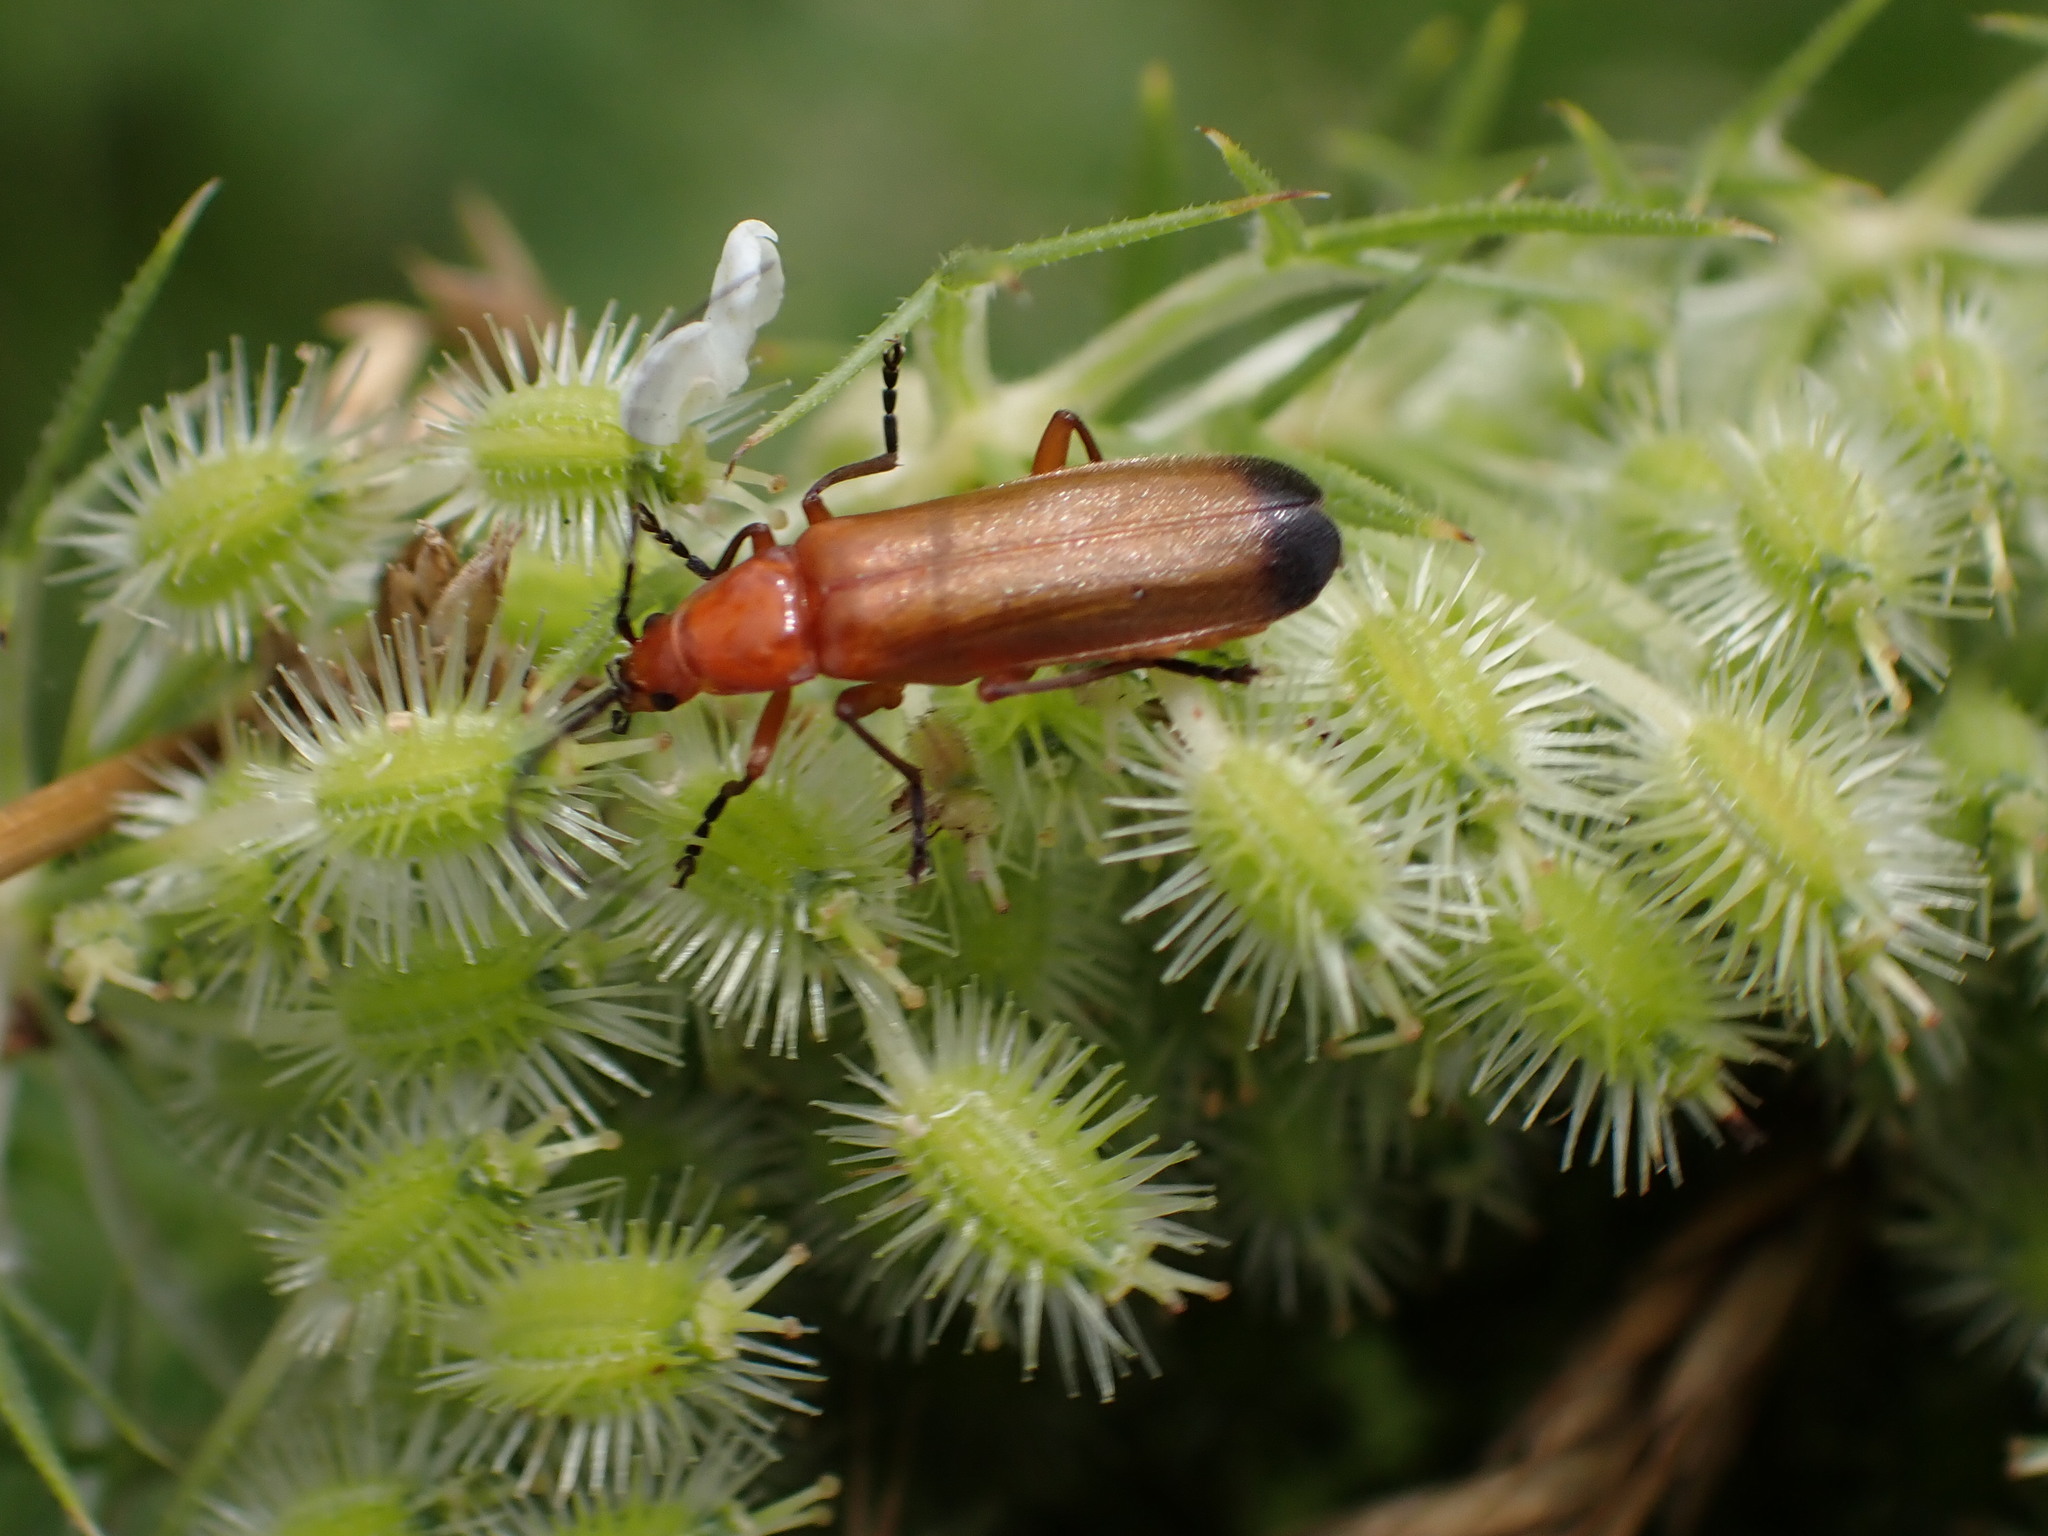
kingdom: Animalia
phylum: Arthropoda
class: Insecta
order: Coleoptera
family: Cantharidae
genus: Rhagonycha
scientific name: Rhagonycha fulva
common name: Common red soldier beetle
